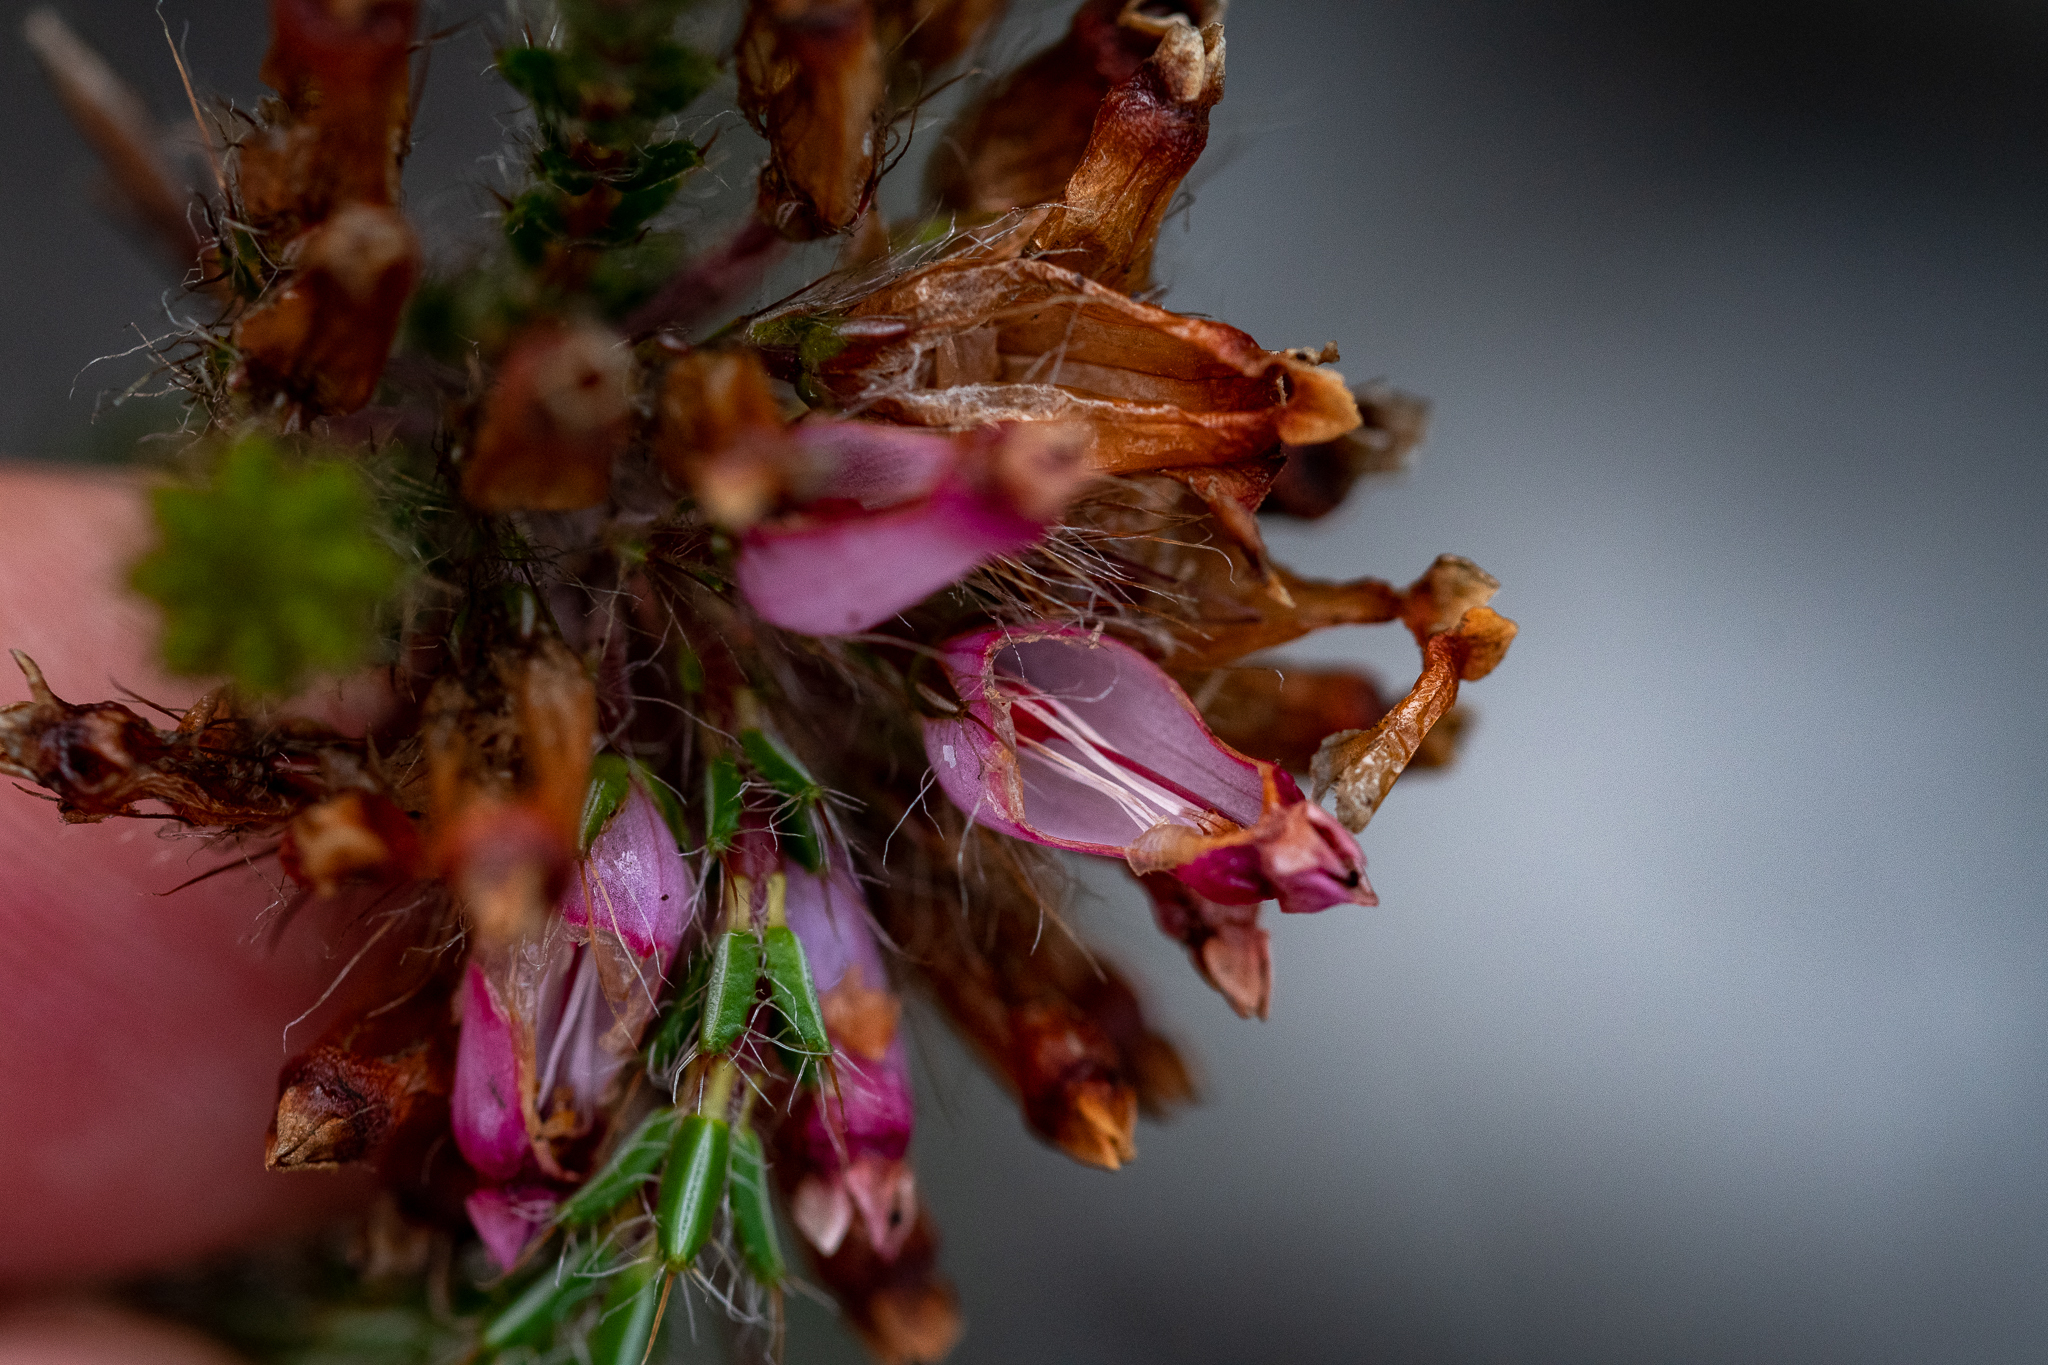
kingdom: Plantae
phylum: Tracheophyta
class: Magnoliopsida
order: Ericales
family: Ericaceae
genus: Erica
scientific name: Erica gysbertii
